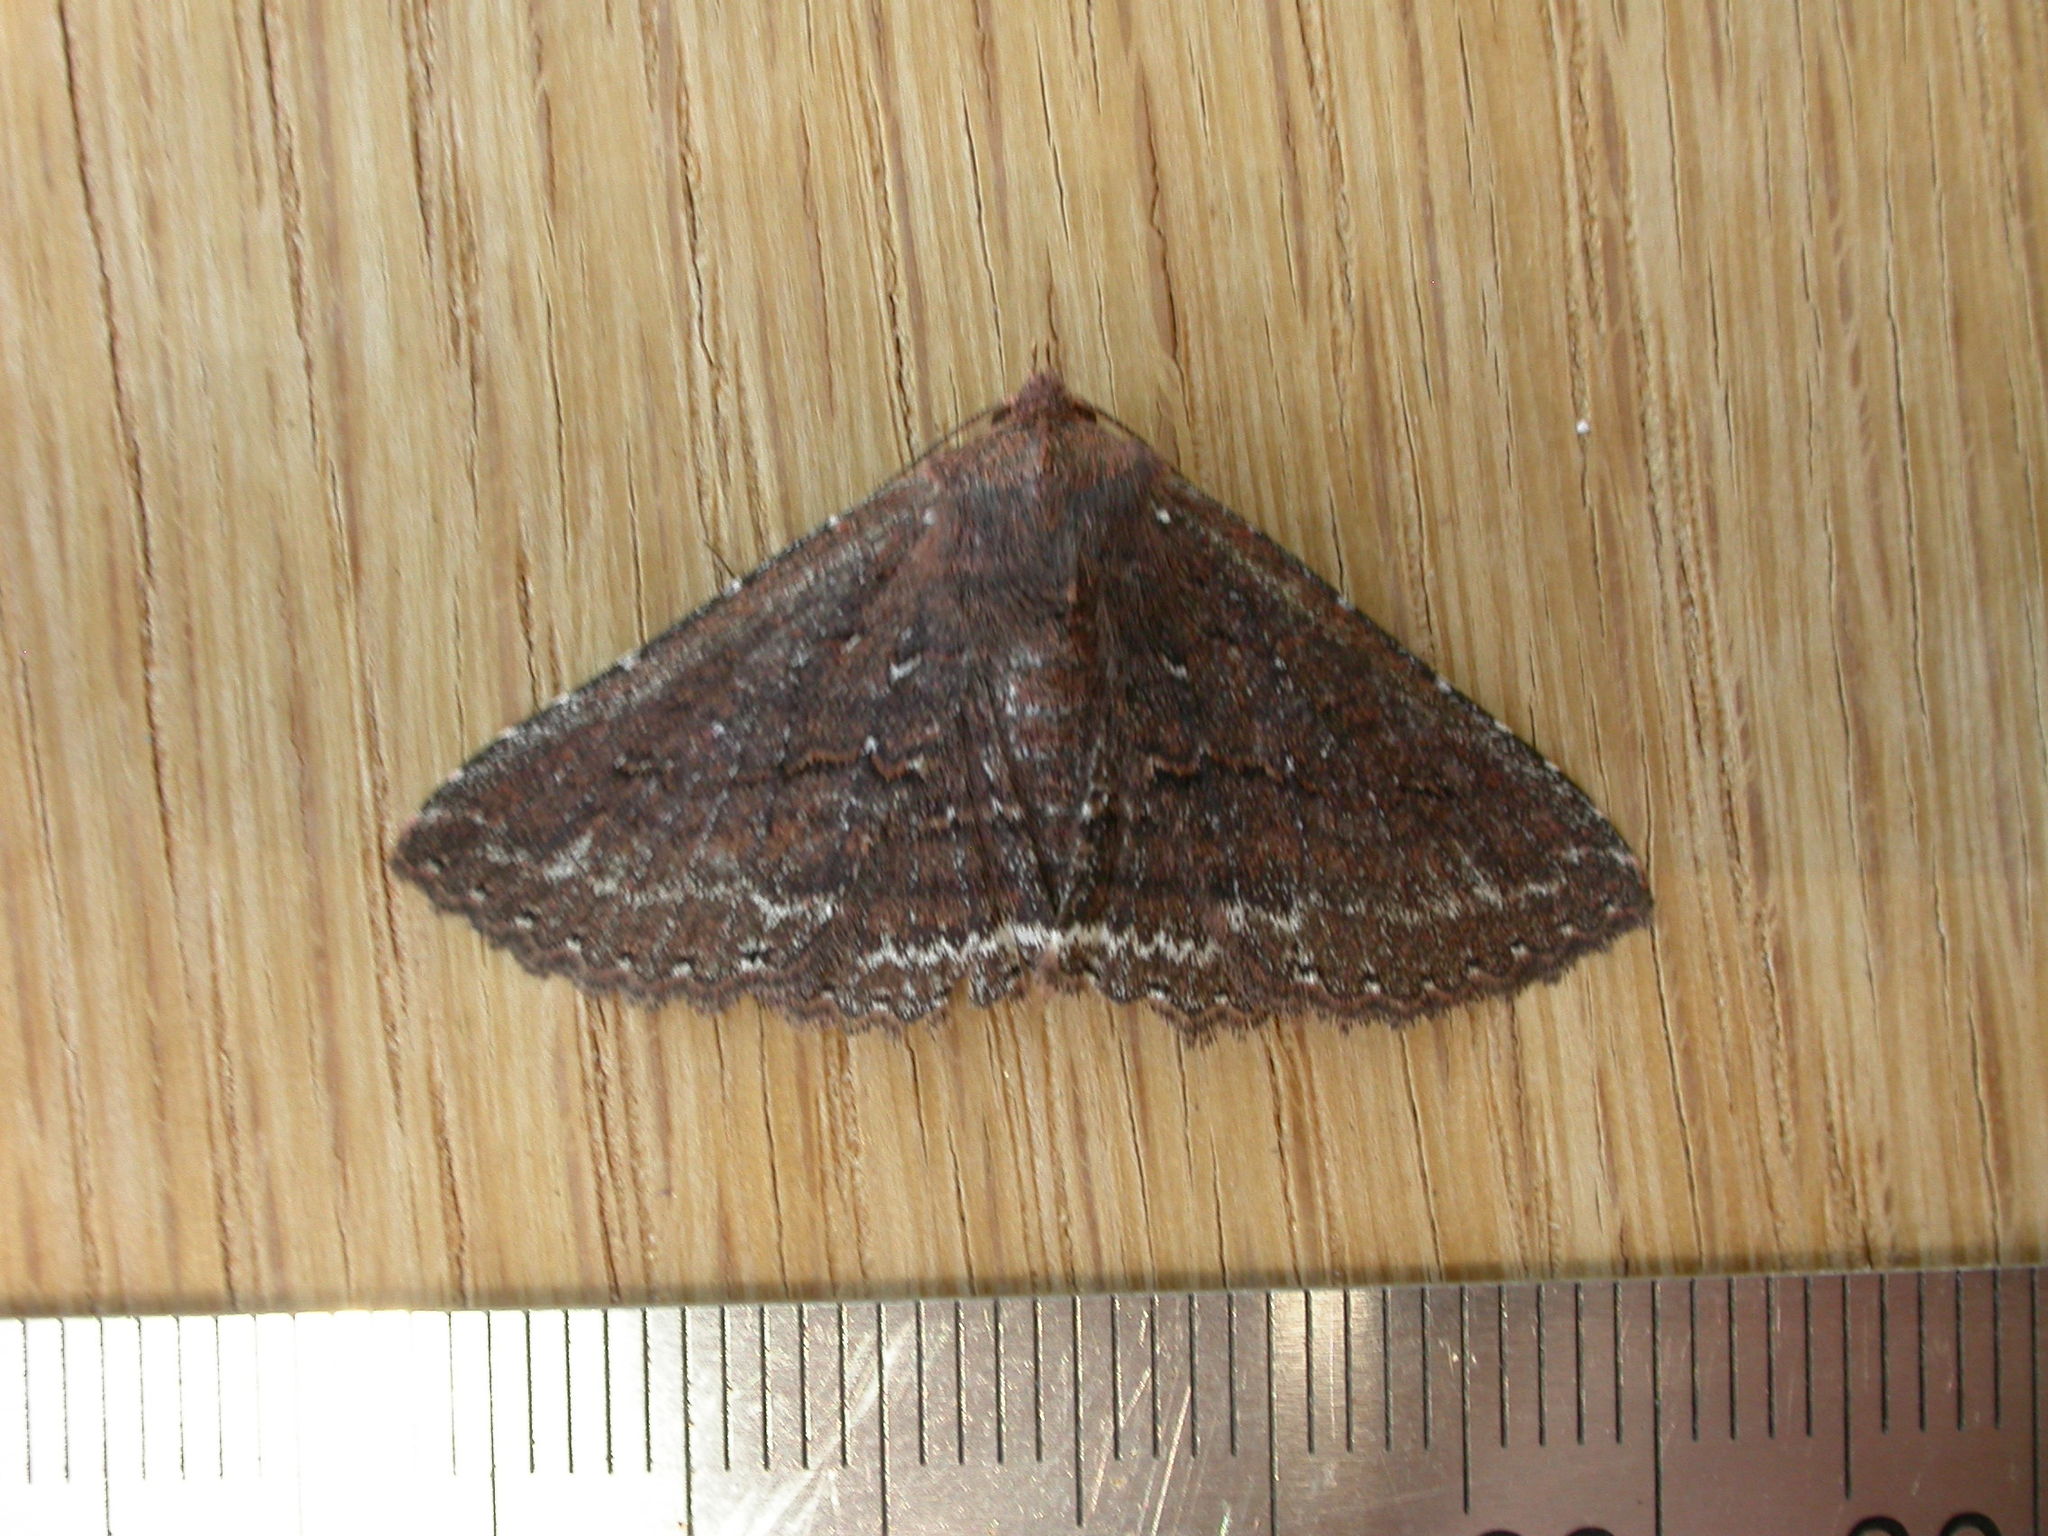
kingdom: Animalia
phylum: Arthropoda
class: Insecta
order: Lepidoptera
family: Erebidae
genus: Praxis
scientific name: Praxis porphyretica
